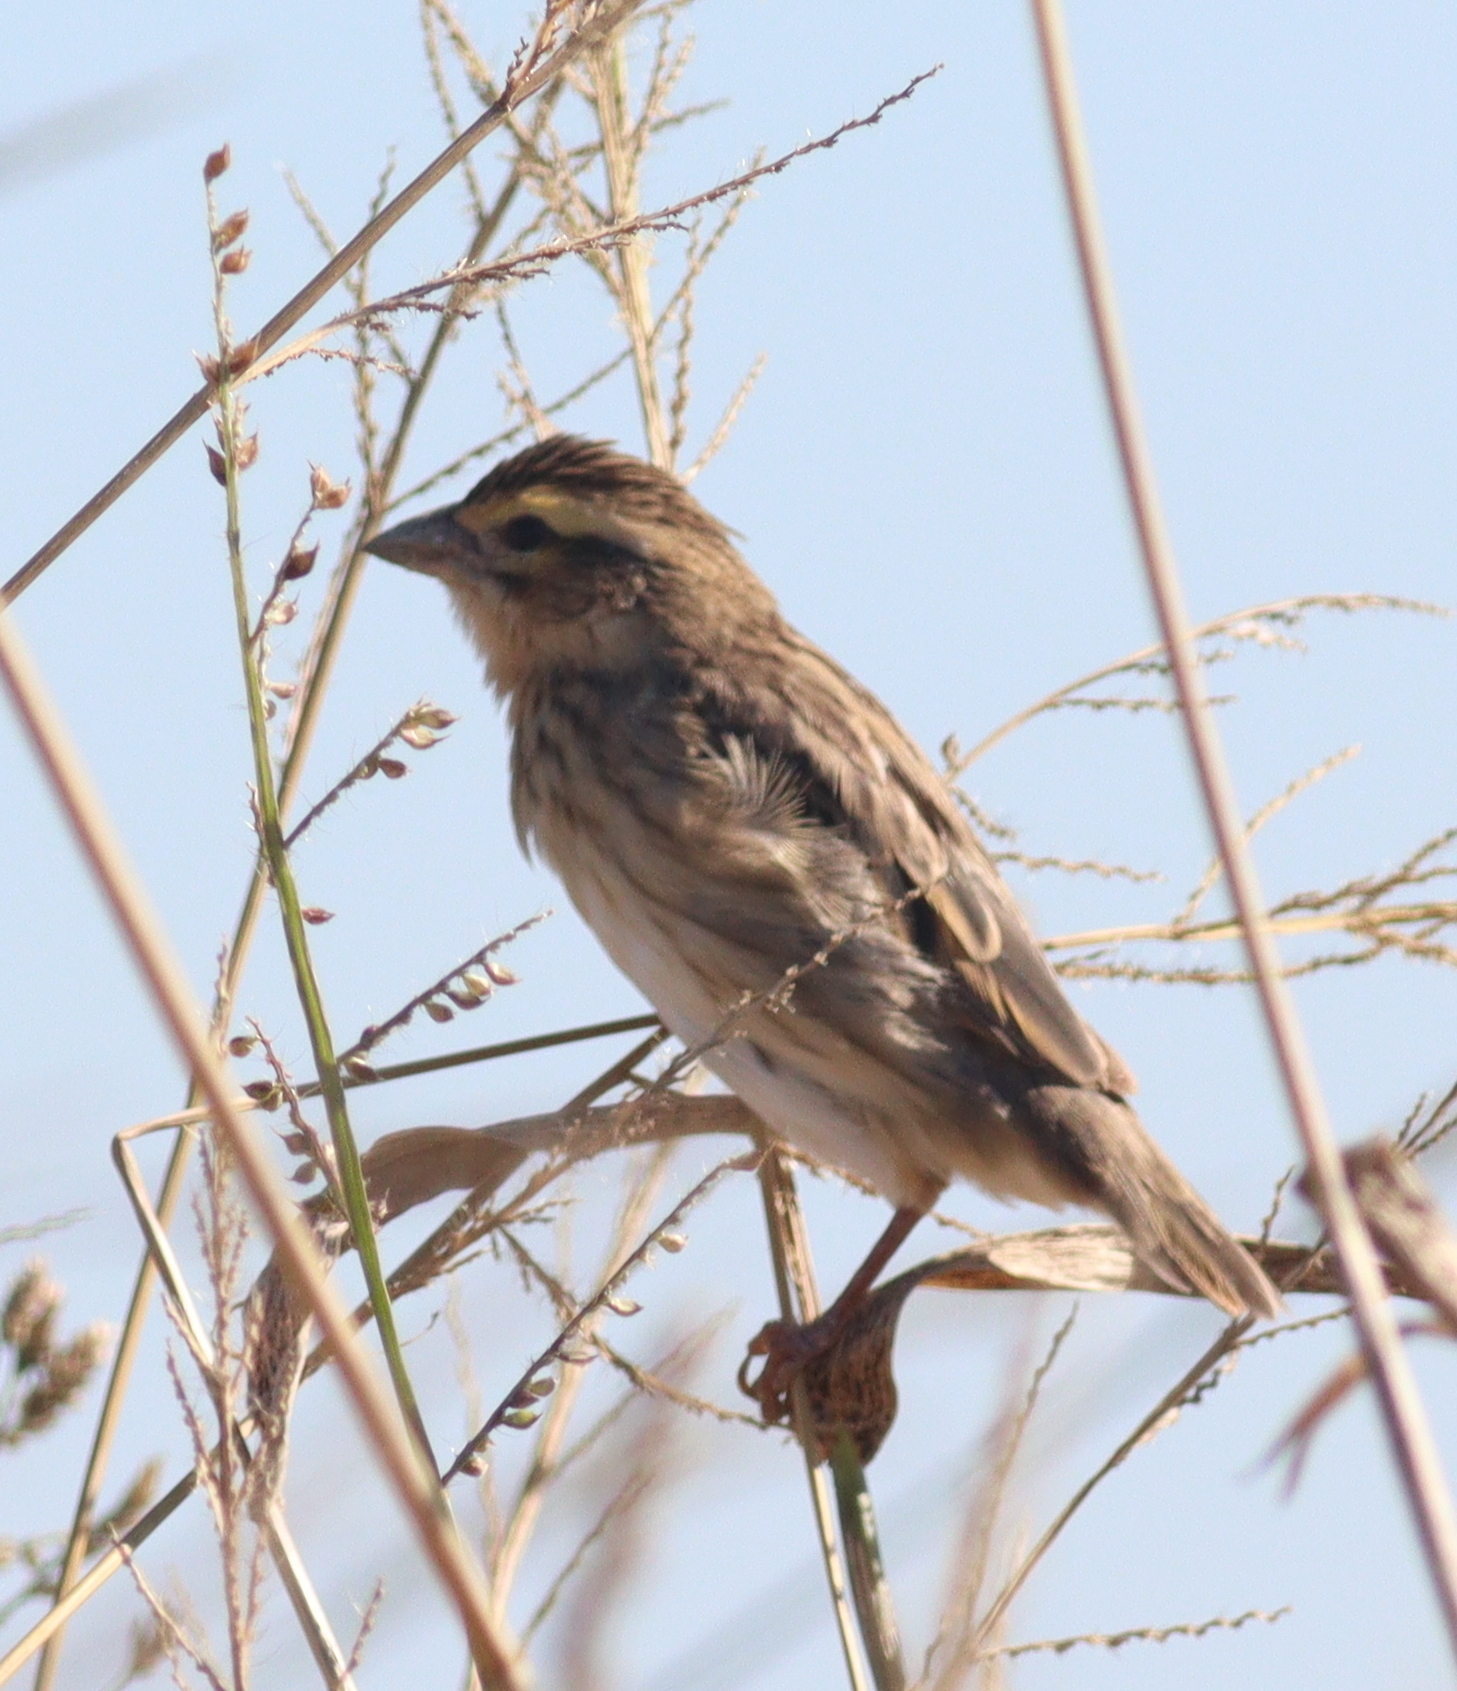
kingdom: Animalia
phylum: Chordata
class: Aves
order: Passeriformes
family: Ploceidae
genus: Euplectes
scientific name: Euplectes afer
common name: Yellow-crowned bishop
